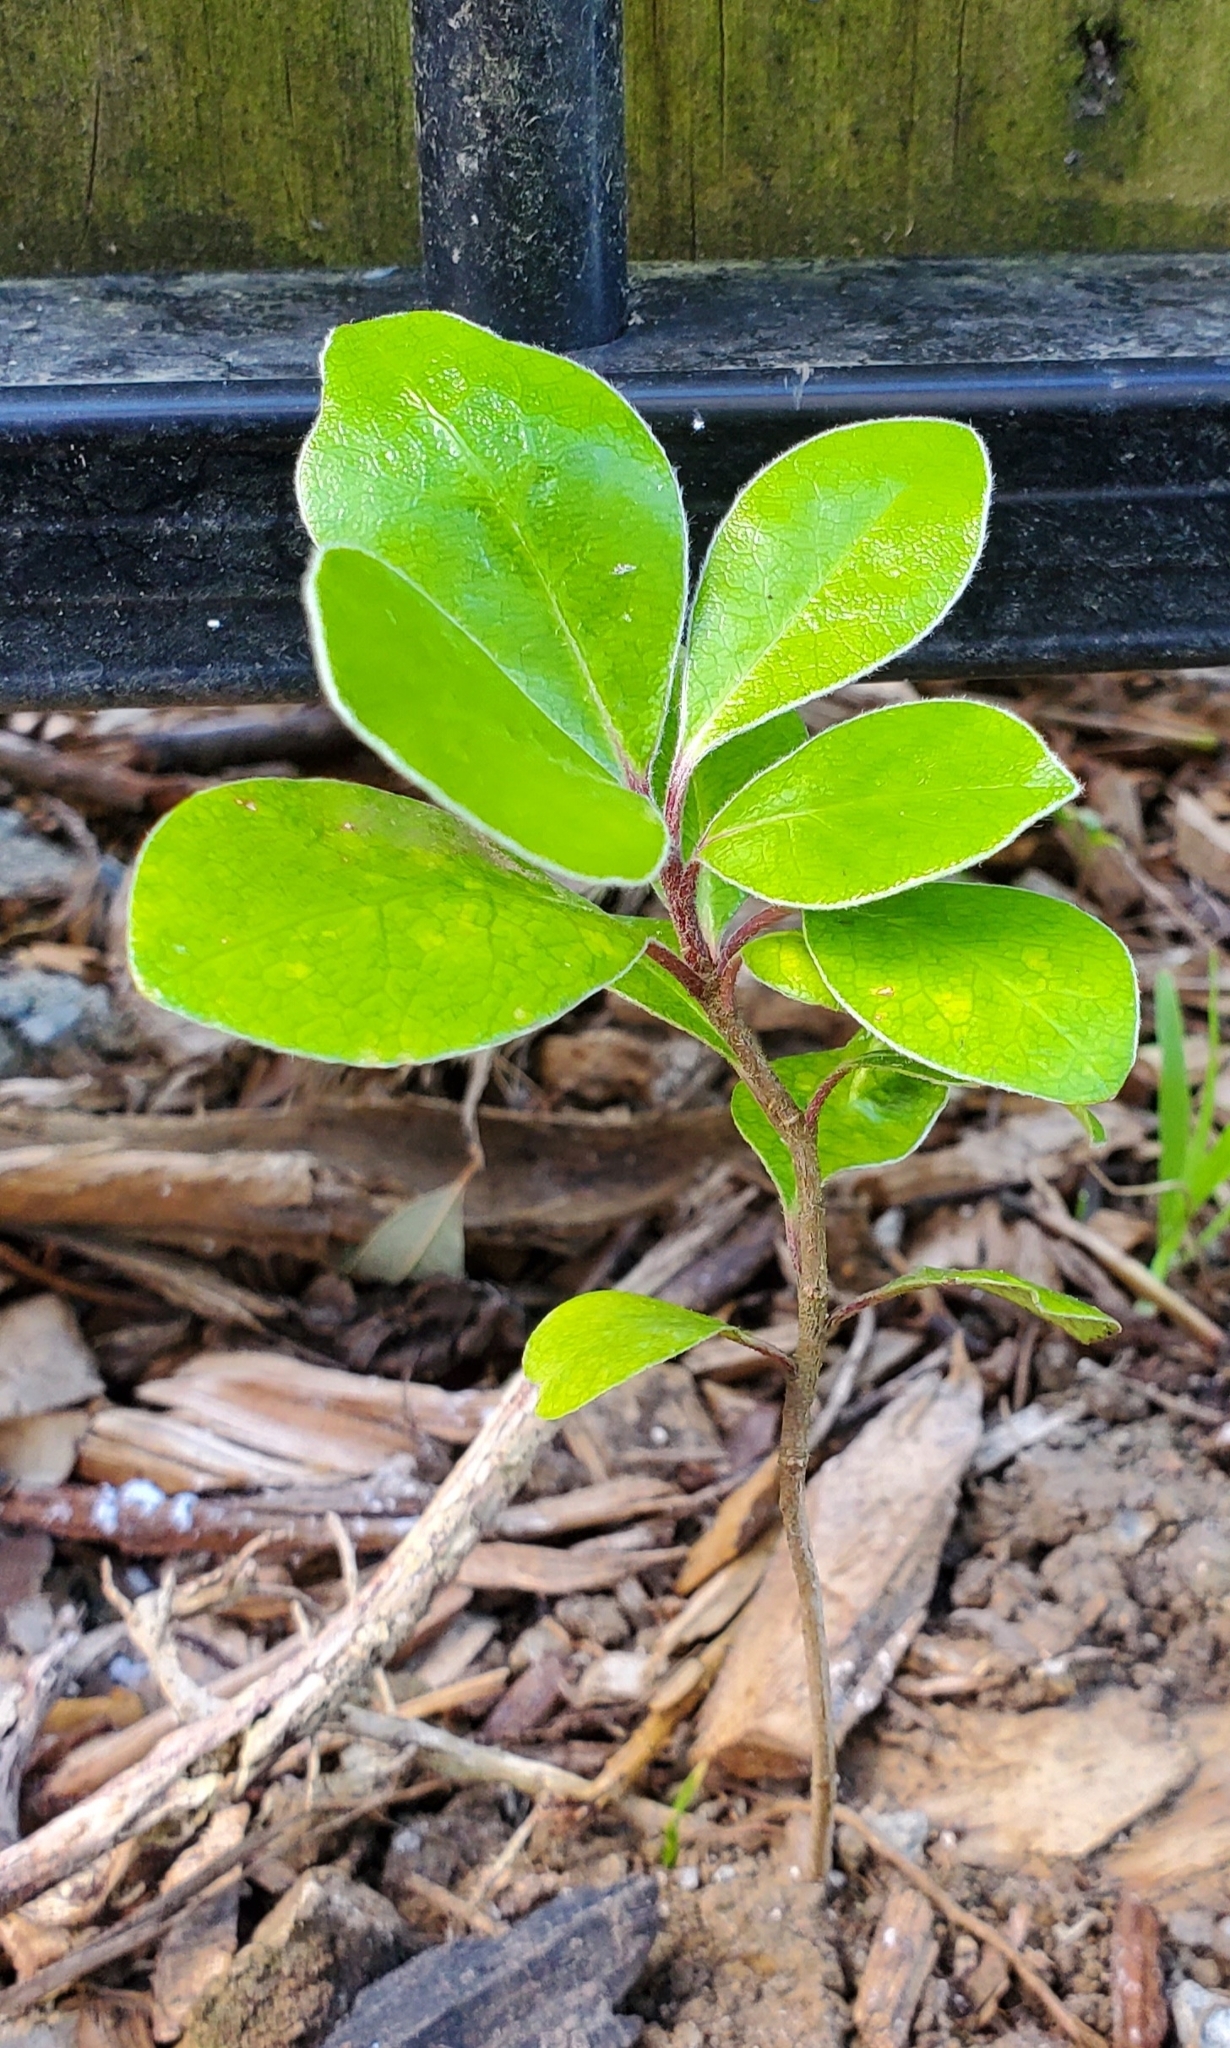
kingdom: Plantae
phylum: Tracheophyta
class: Magnoliopsida
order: Apiales
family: Pittosporaceae
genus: Pittosporum
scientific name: Pittosporum crassifolium
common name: Karo
